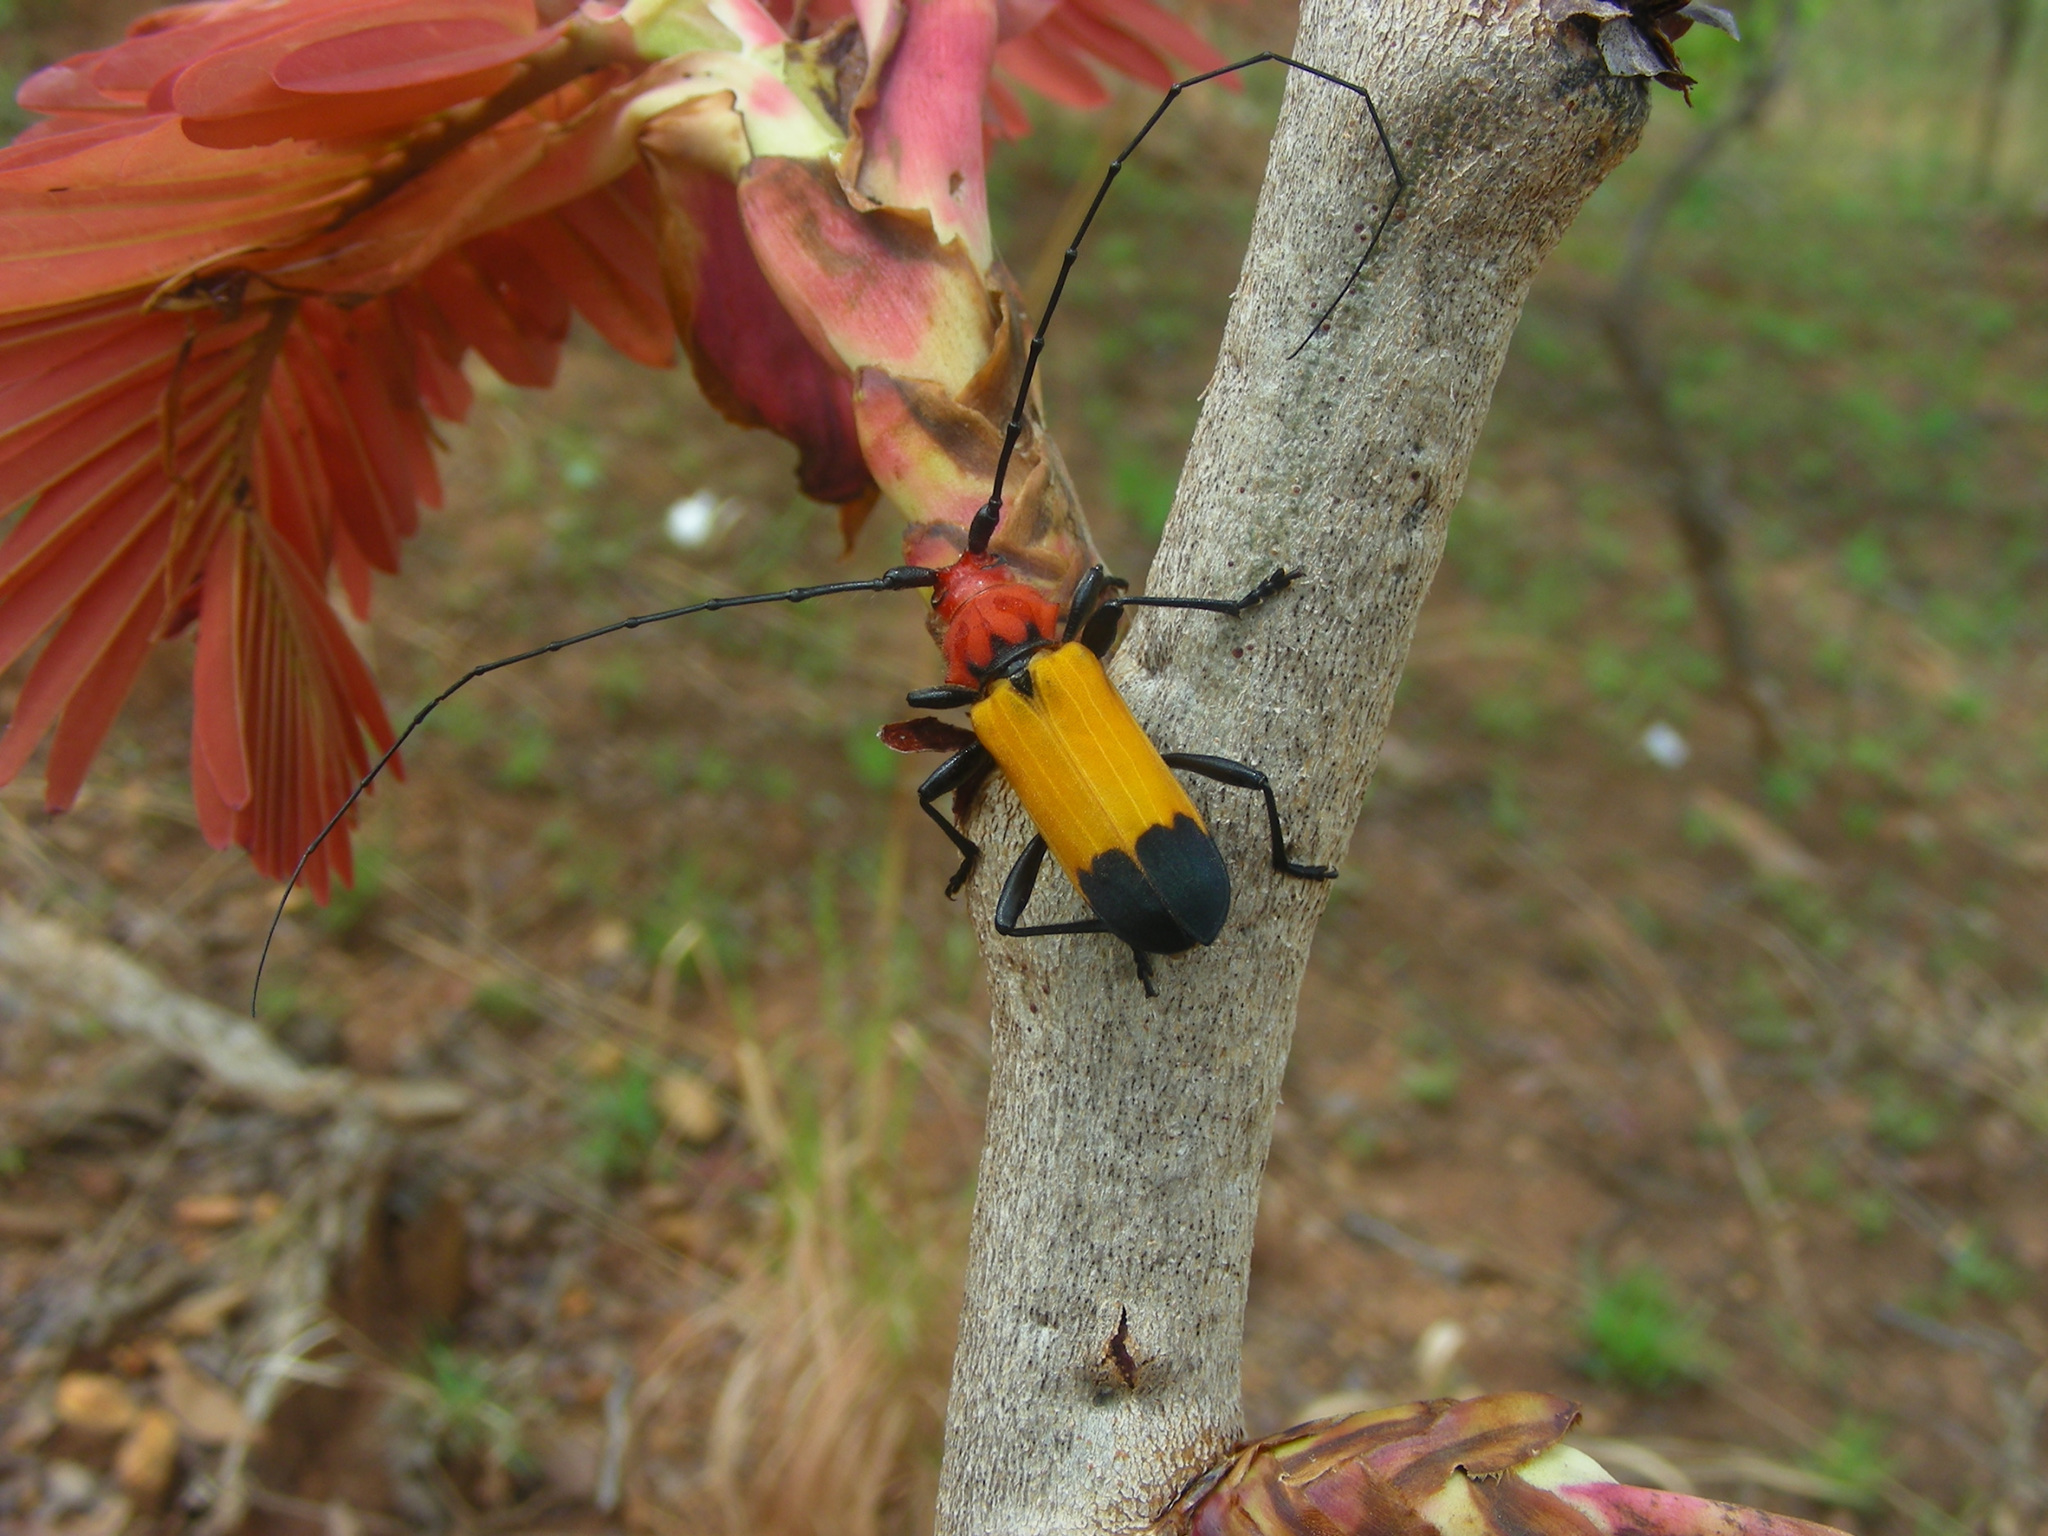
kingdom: Animalia
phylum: Arthropoda
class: Insecta
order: Coleoptera
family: Cerambycidae
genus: Purpuricenus
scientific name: Purpuricenus laetus
